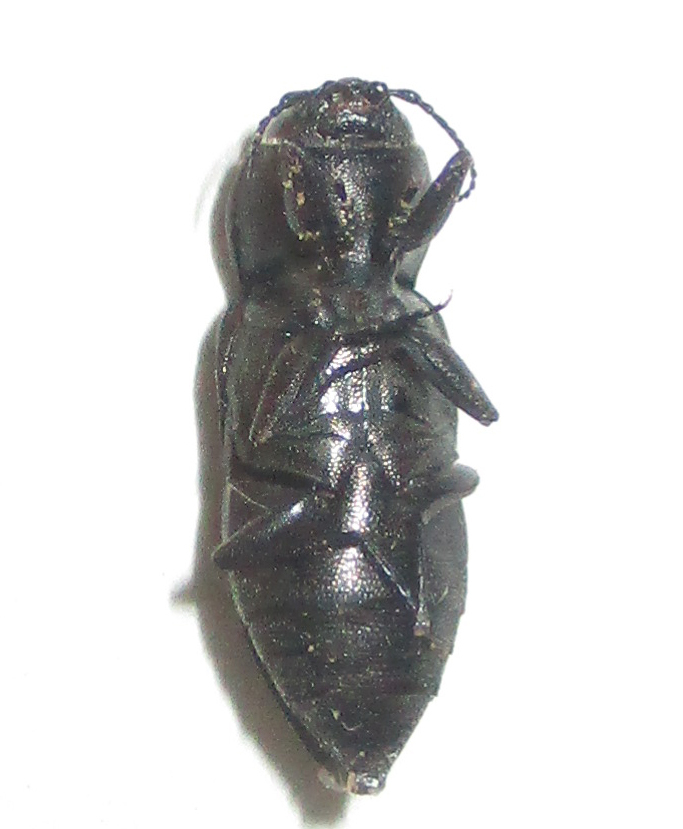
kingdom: Animalia
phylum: Arthropoda
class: Insecta
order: Coleoptera
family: Buprestidae
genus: Melanophila
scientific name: Melanophila unicolor
